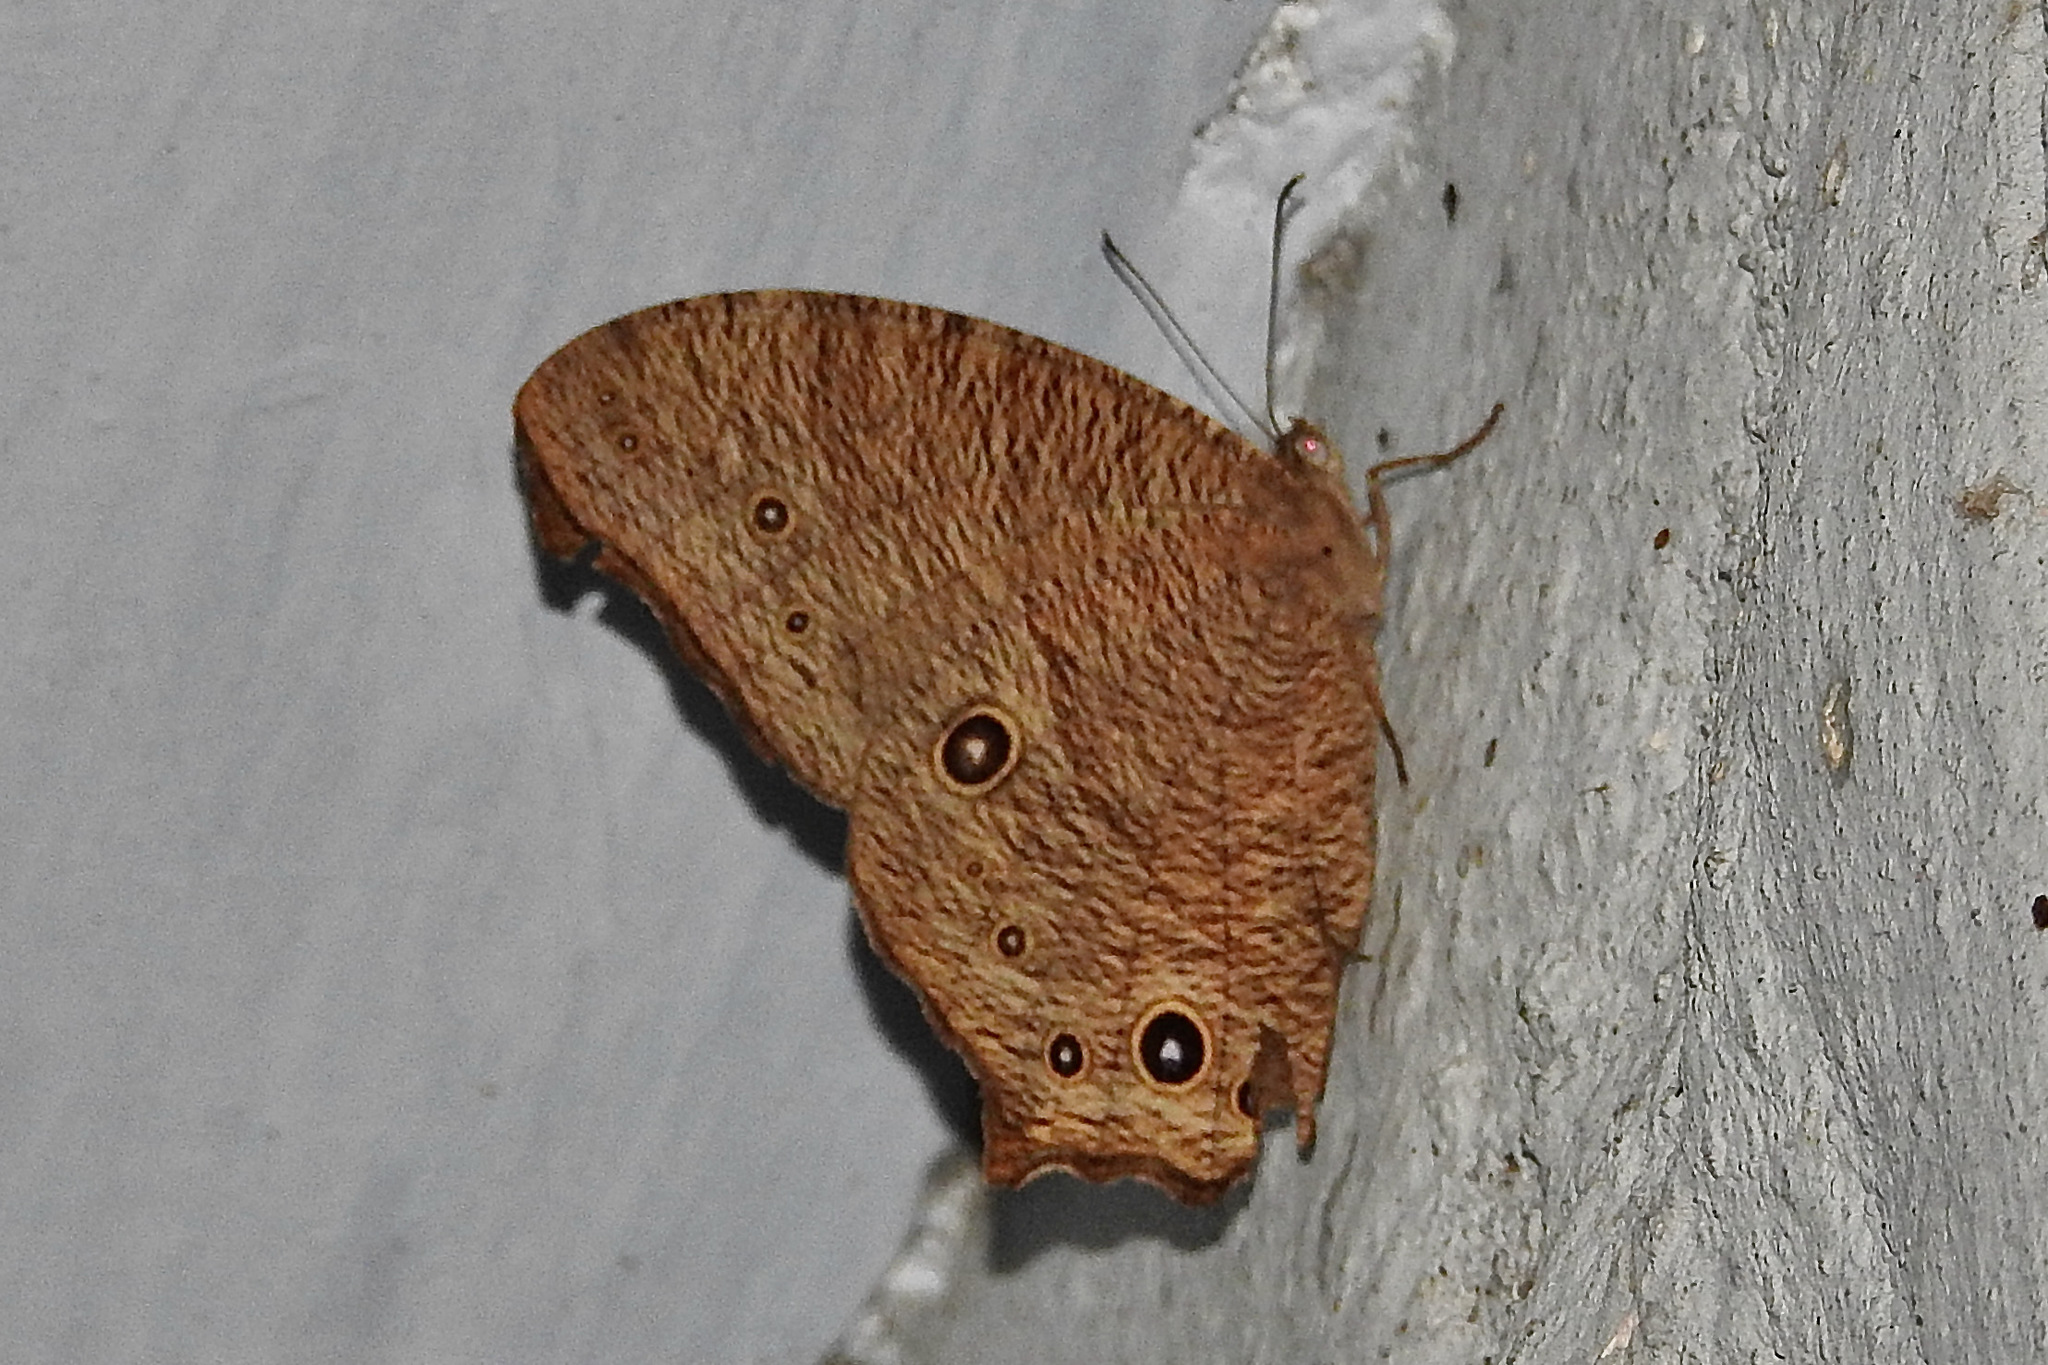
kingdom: Animalia
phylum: Arthropoda
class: Insecta
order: Lepidoptera
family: Nymphalidae
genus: Melanitis
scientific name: Melanitis leda
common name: Twilight brown
